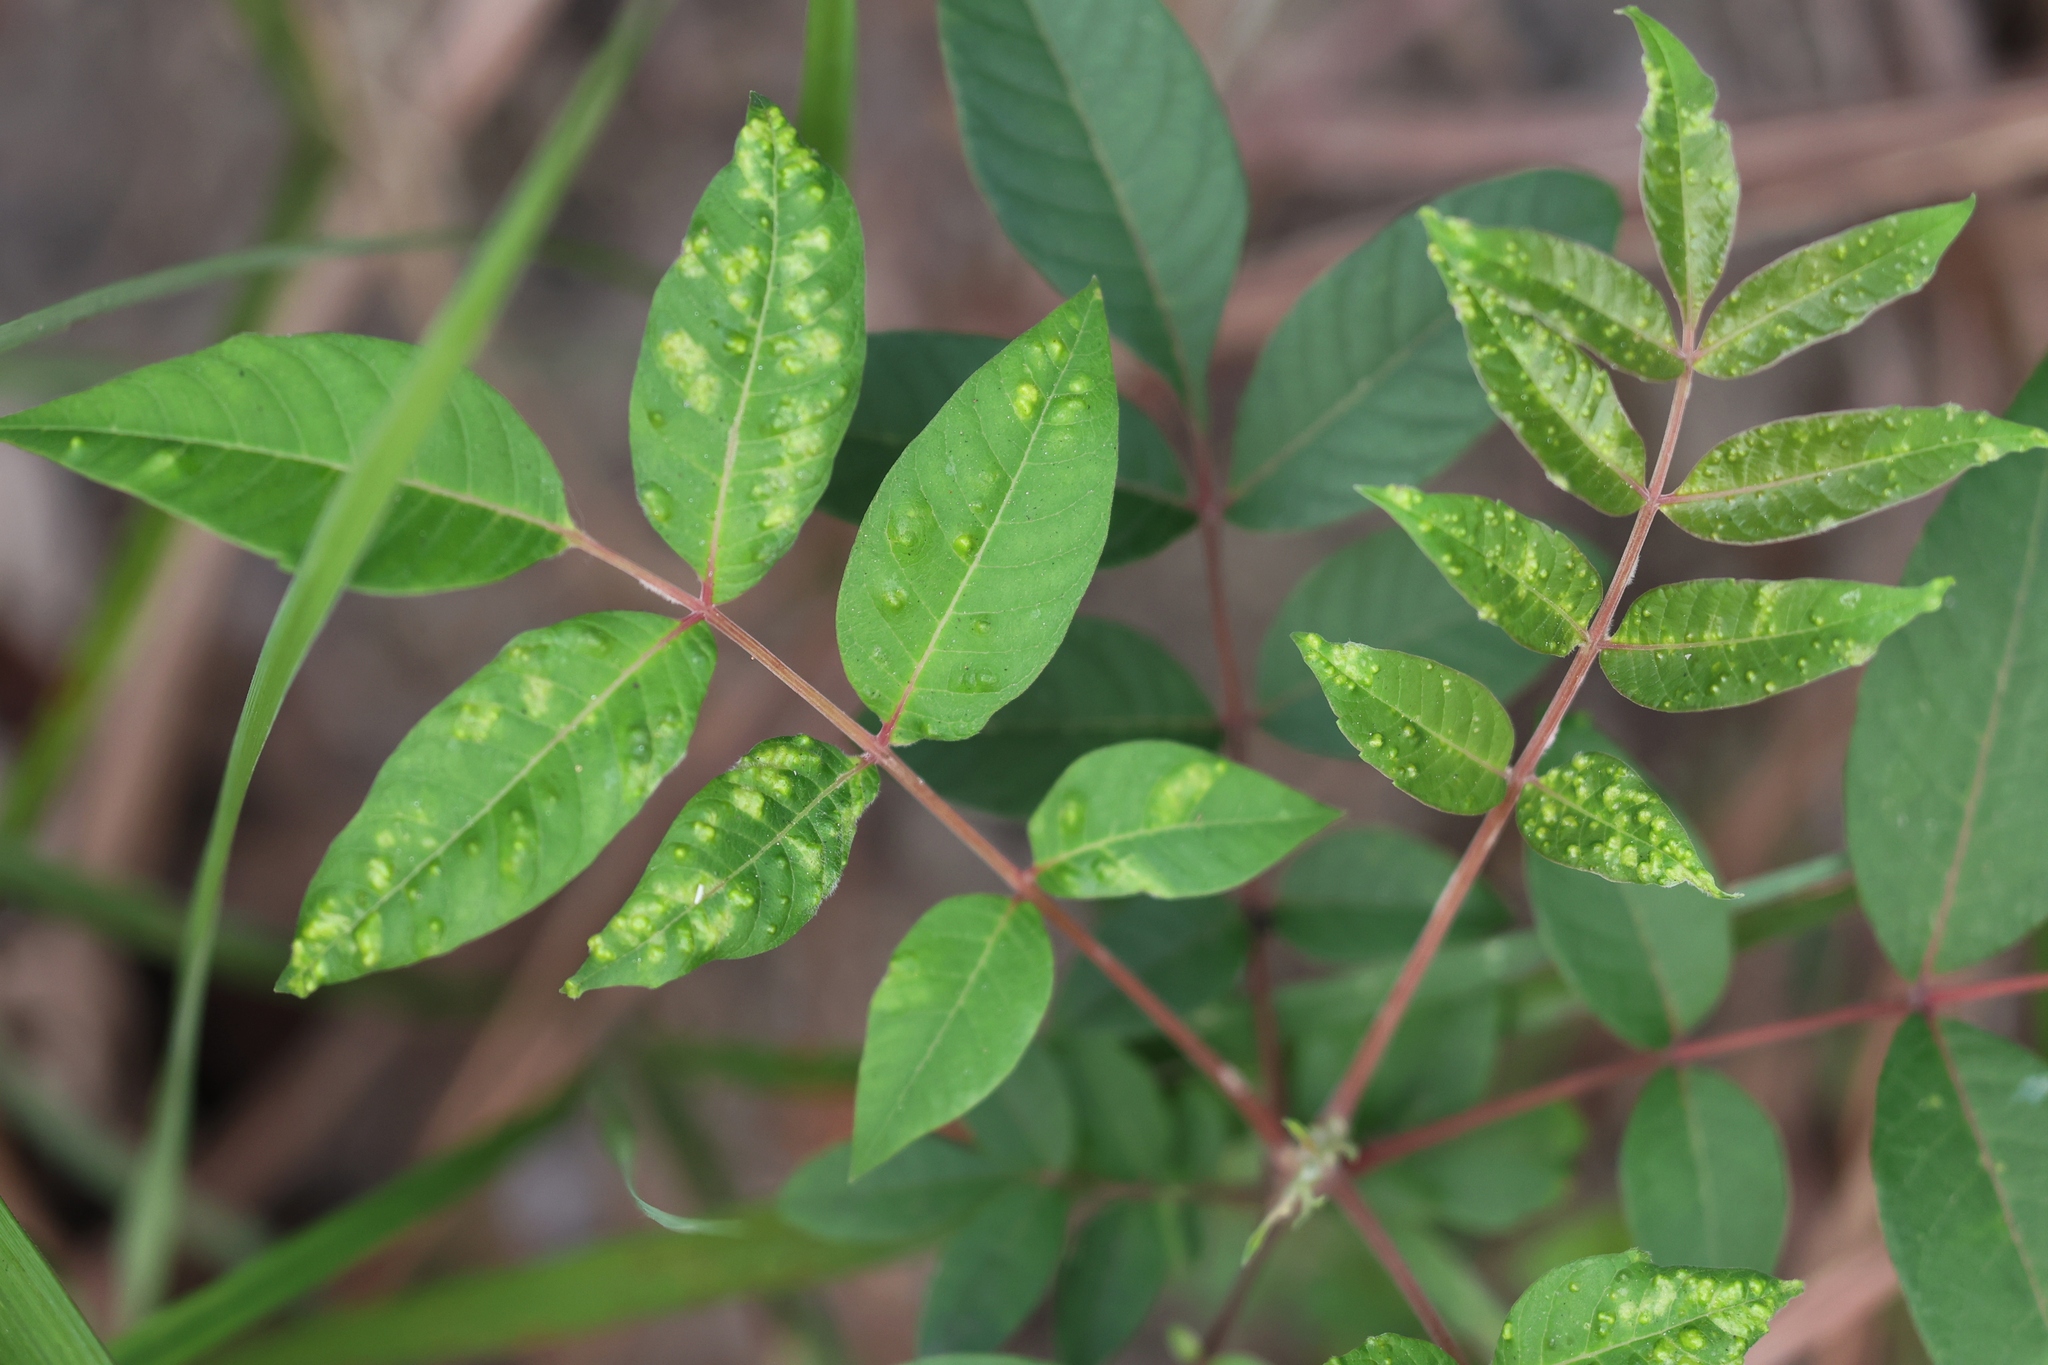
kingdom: Plantae
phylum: Tracheophyta
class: Magnoliopsida
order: Sapindales
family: Anacardiaceae
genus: Rhus
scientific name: Rhus hypoleuca
